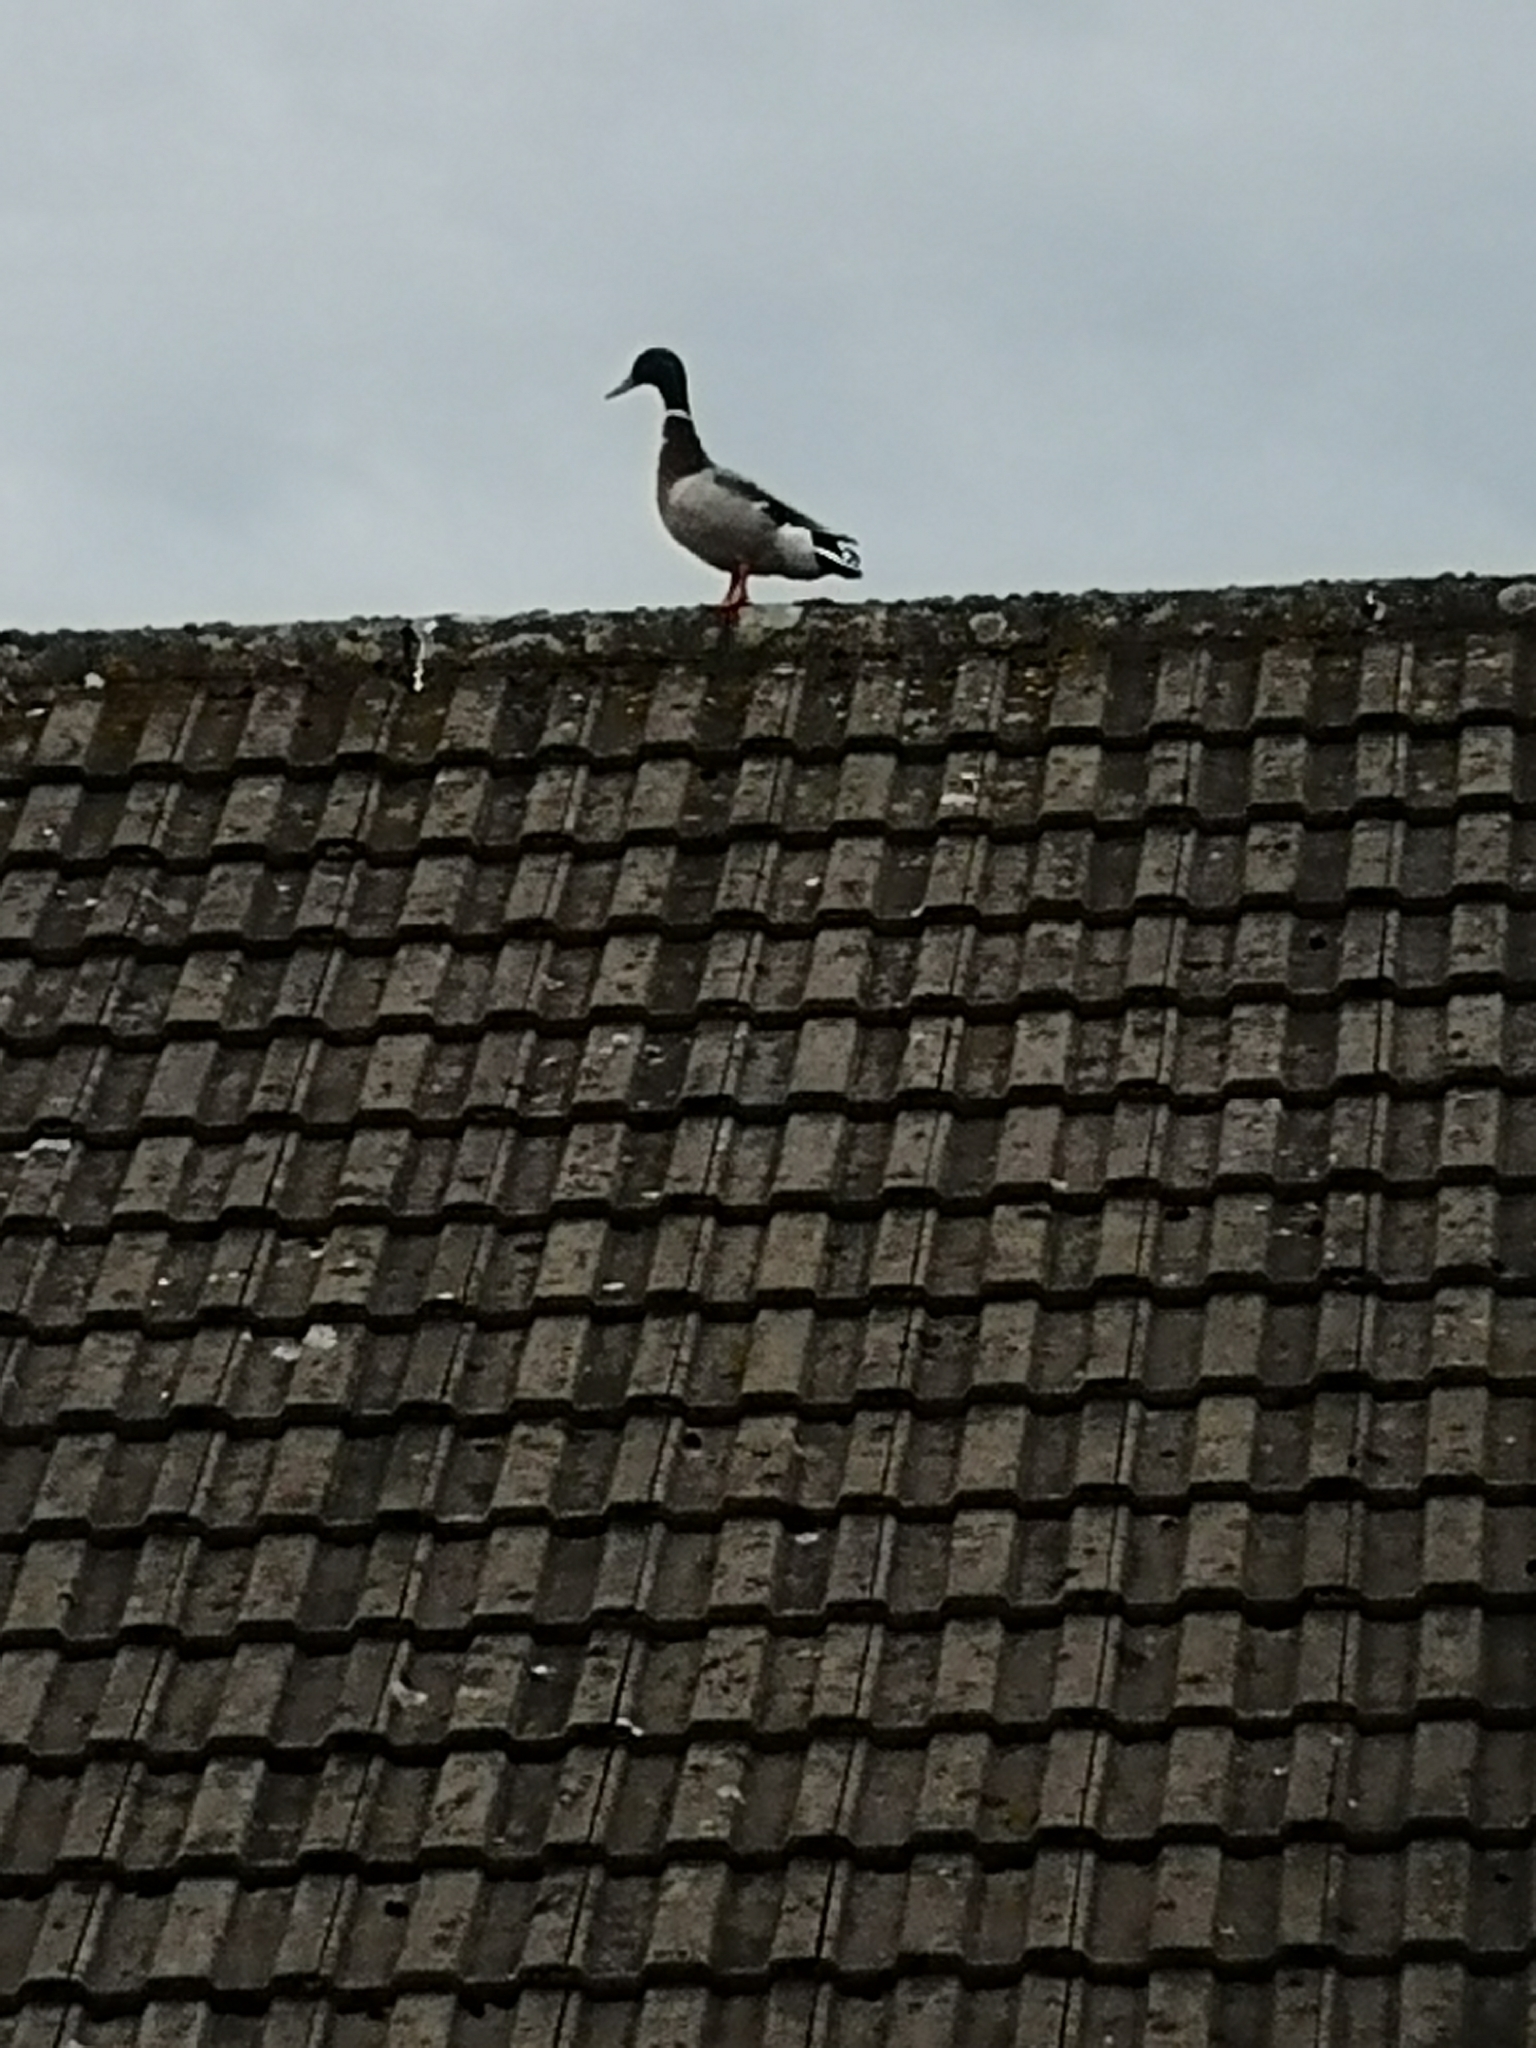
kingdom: Animalia
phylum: Chordata
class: Aves
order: Anseriformes
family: Anatidae
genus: Anas
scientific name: Anas platyrhynchos
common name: Mallard
